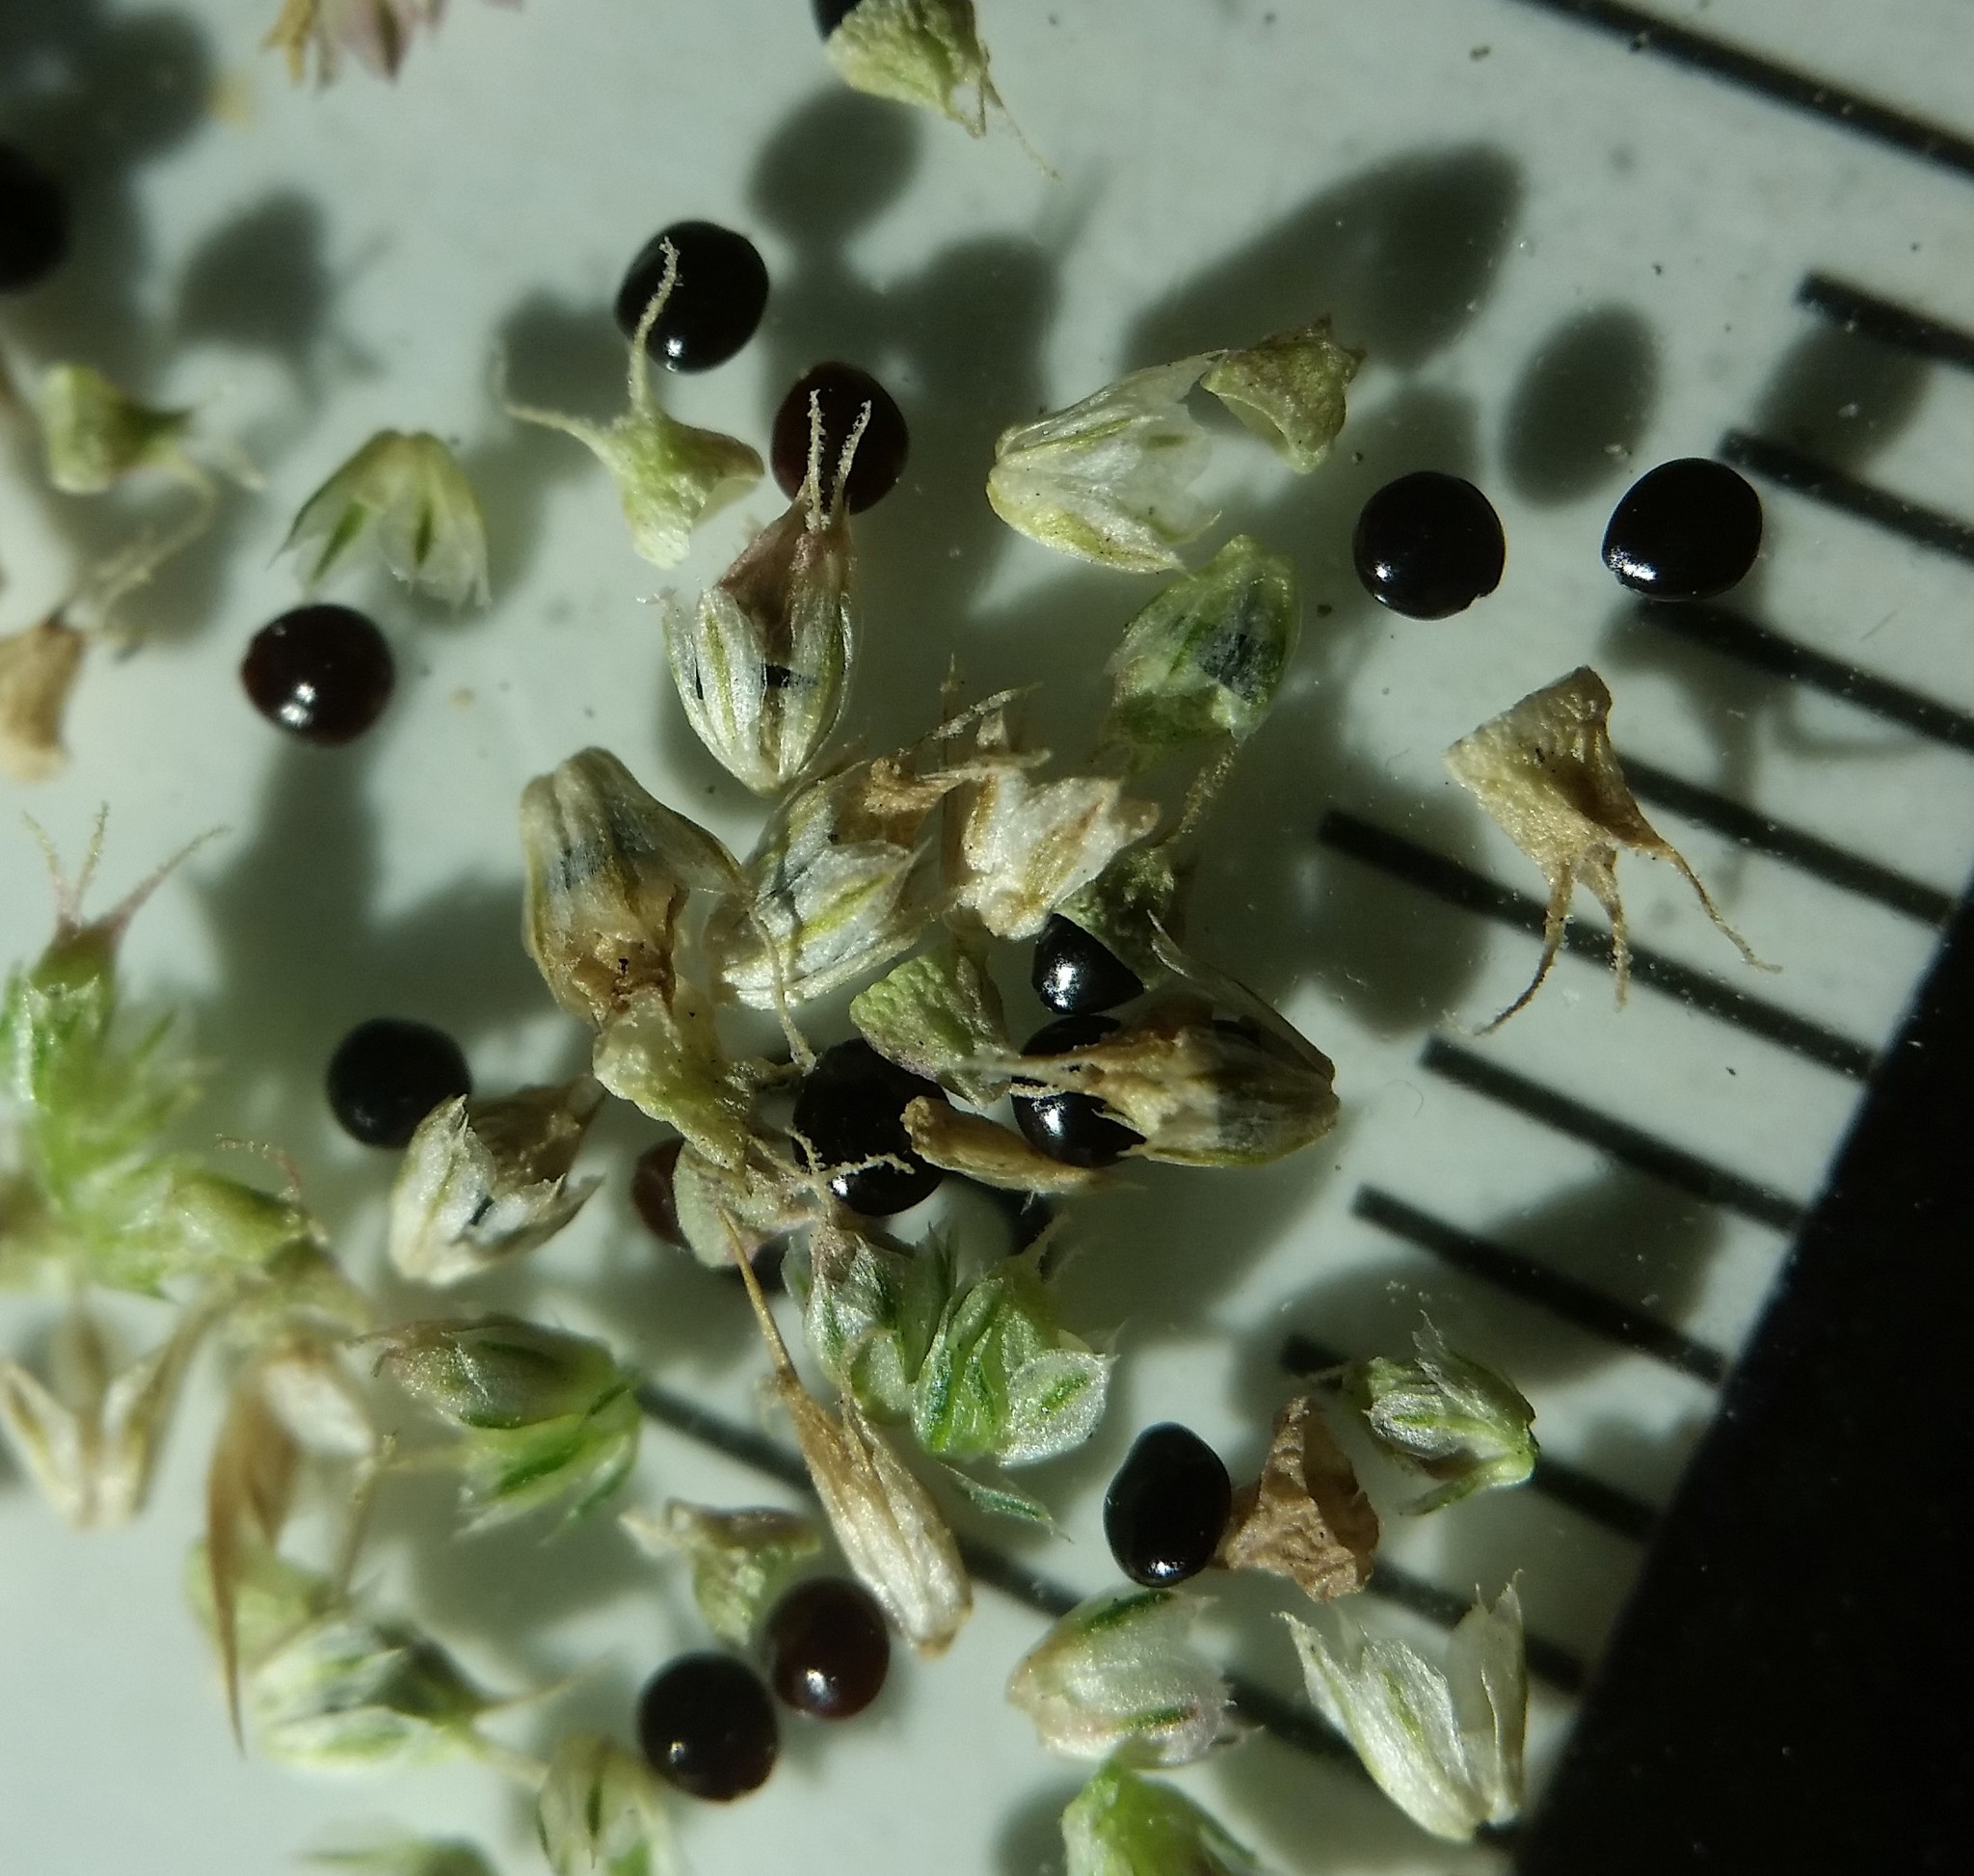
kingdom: Plantae
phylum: Tracheophyta
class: Magnoliopsida
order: Caryophyllales
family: Amaranthaceae
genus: Amaranthus
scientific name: Amaranthus spinosus
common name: Spiny amaranth
